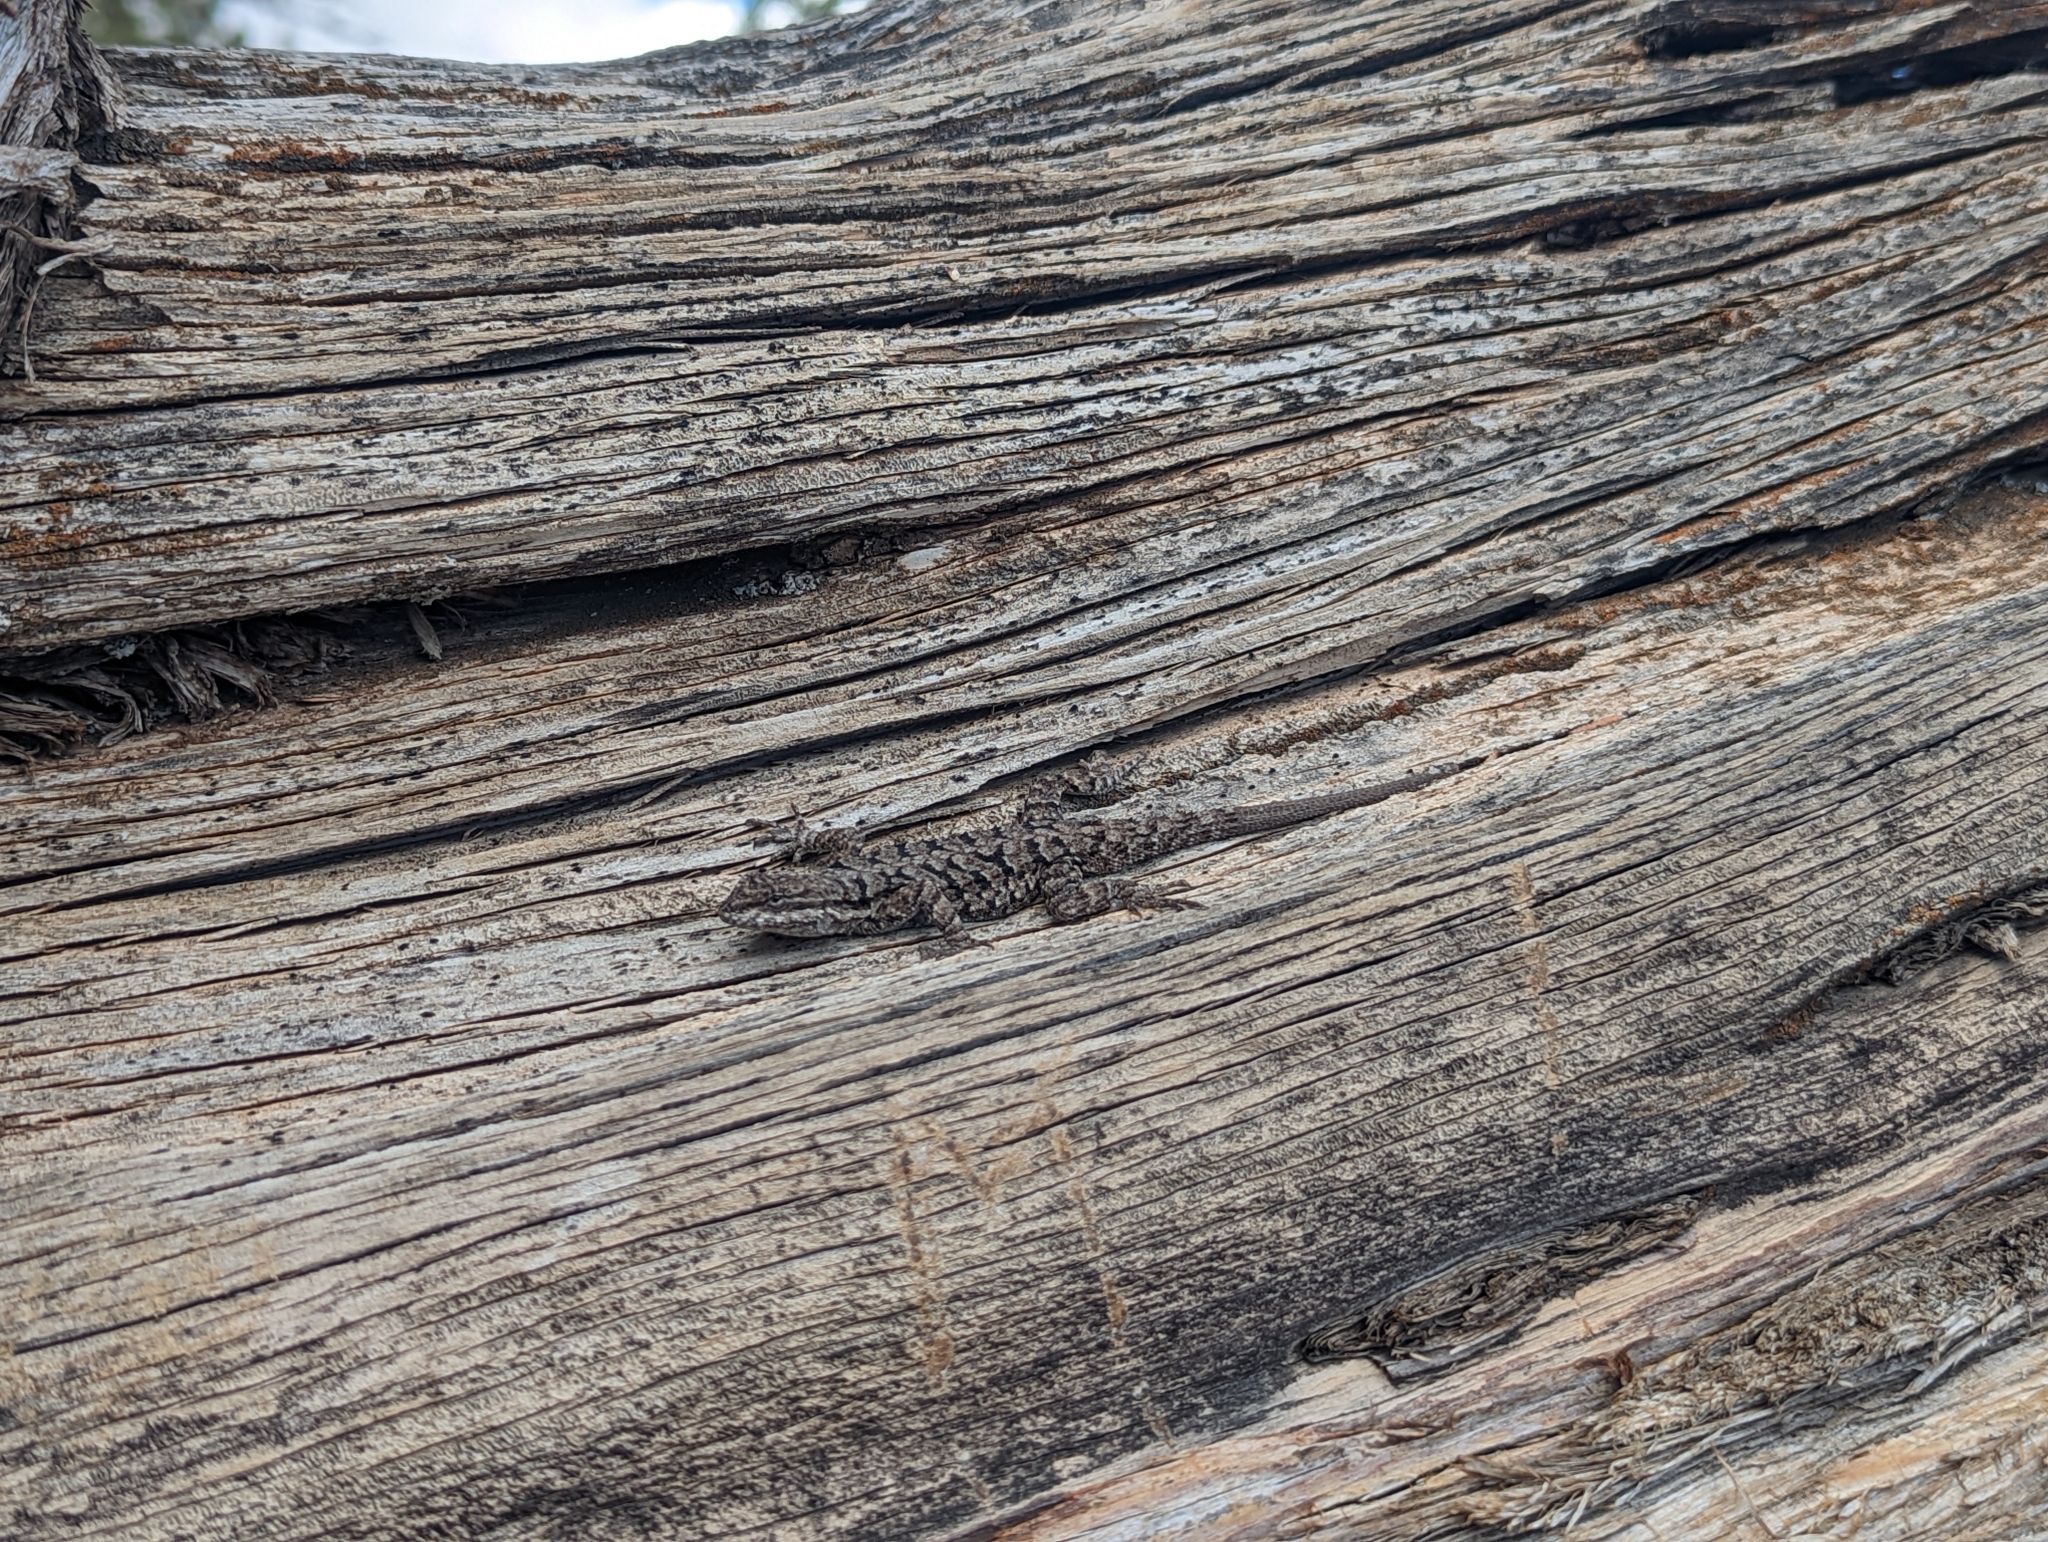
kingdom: Animalia
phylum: Chordata
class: Squamata
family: Phrynosomatidae
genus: Urosaurus
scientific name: Urosaurus ornatus
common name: Ornate tree lizard
